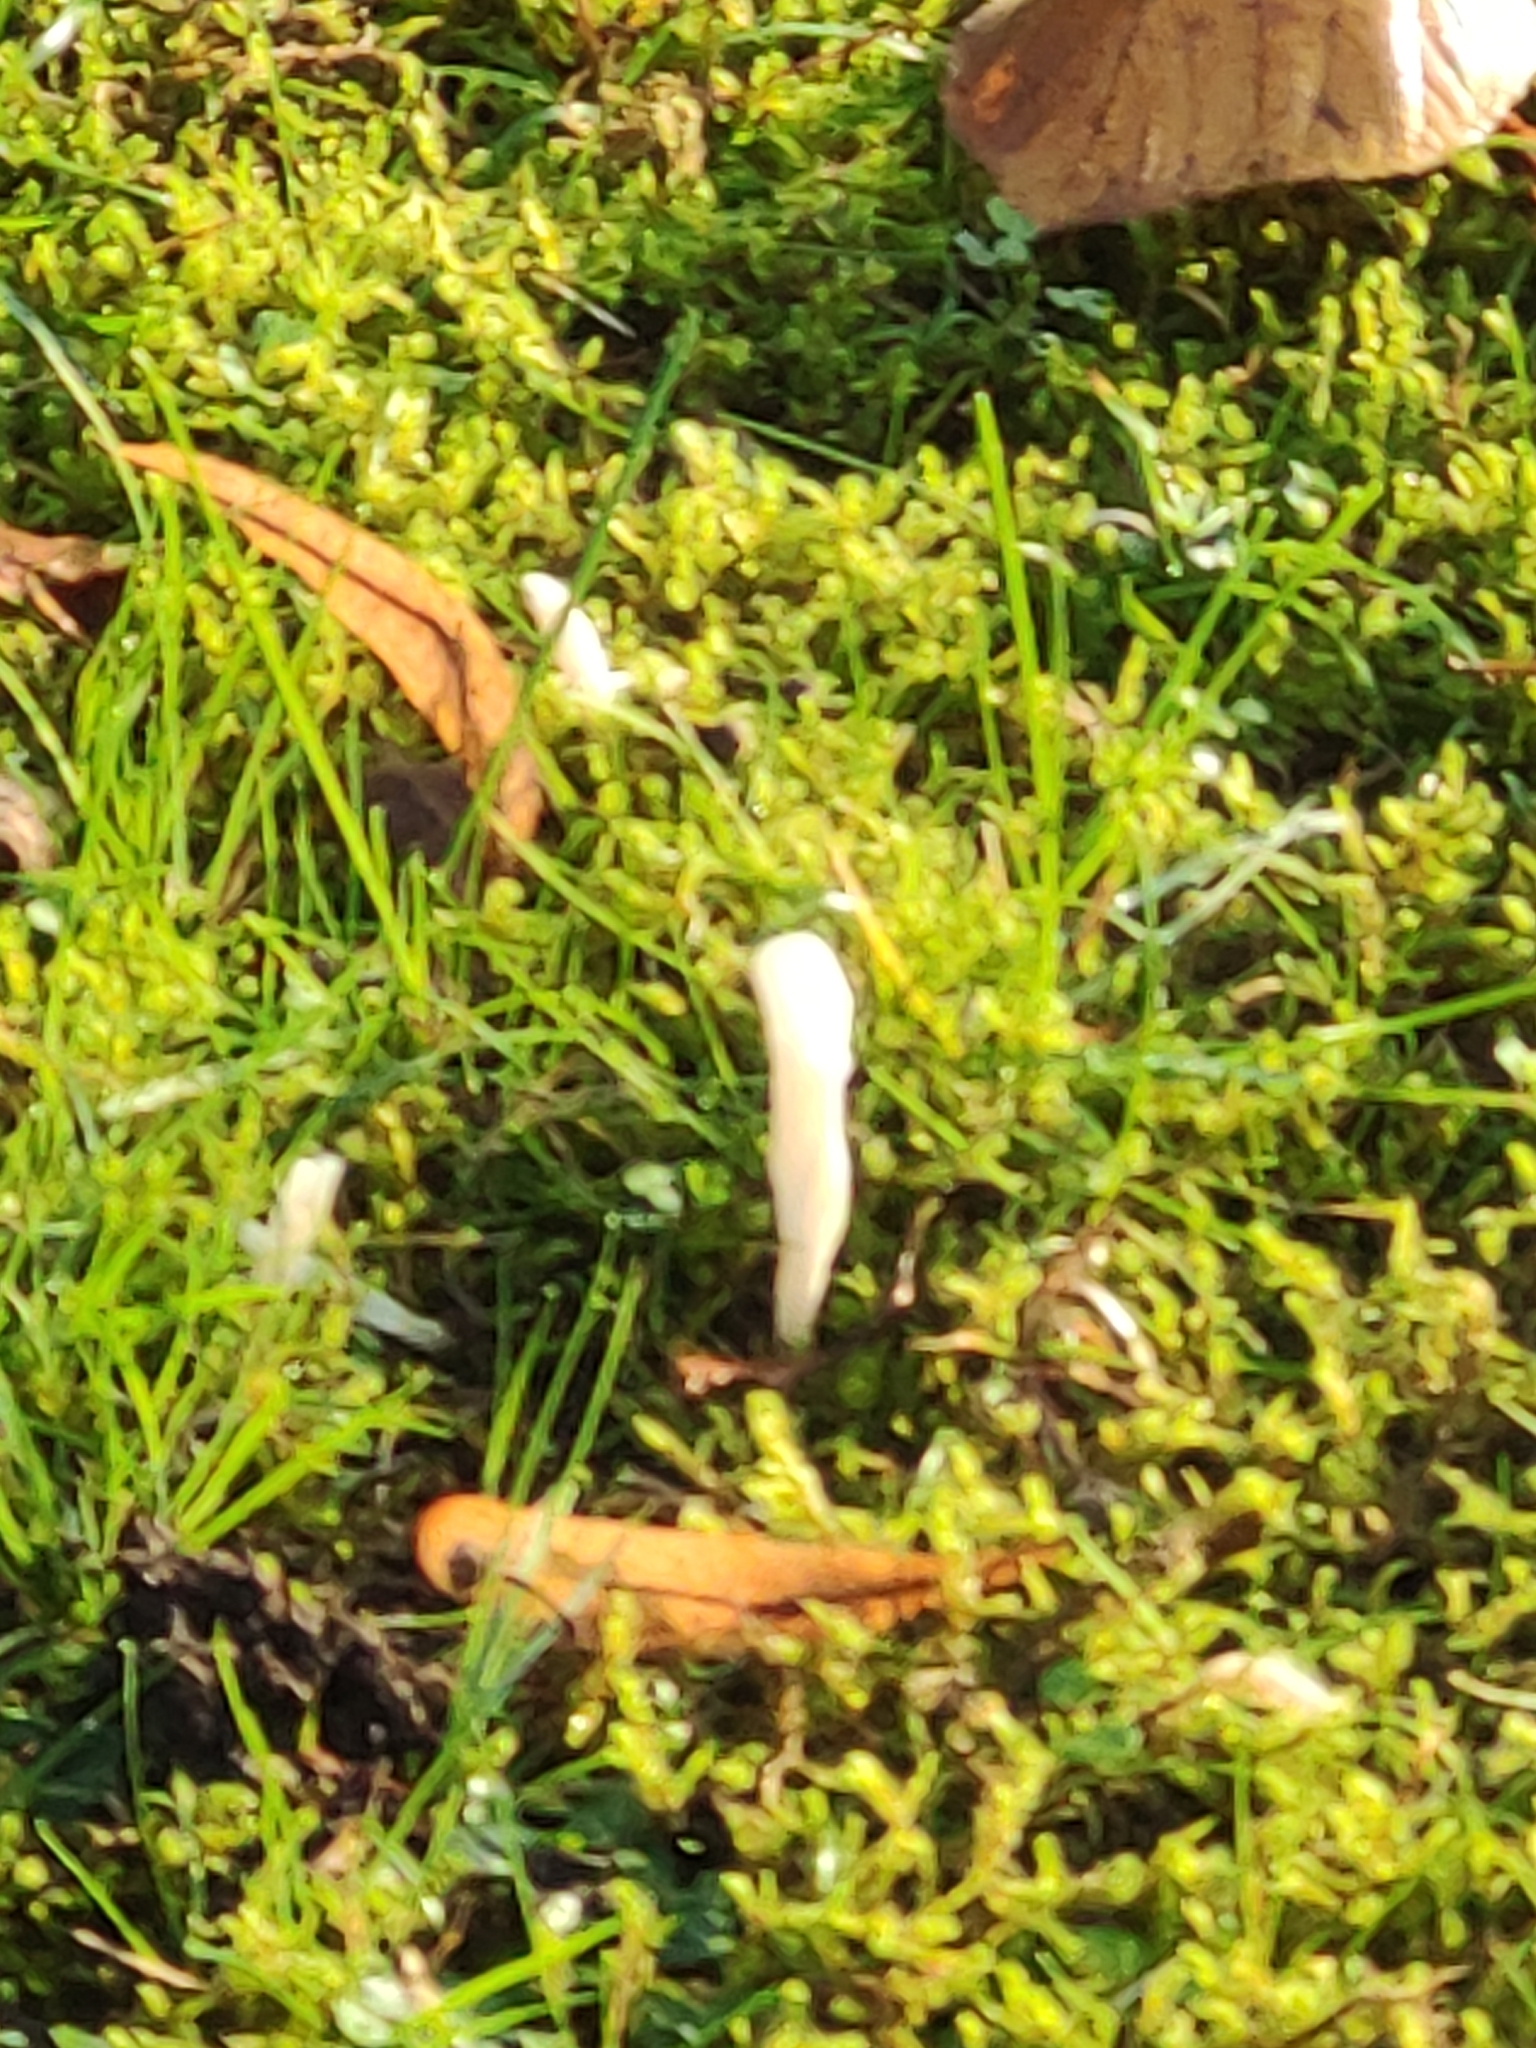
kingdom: Fungi
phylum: Basidiomycota
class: Agaricomycetes
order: Cantharellales
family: Hydnaceae
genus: Clavulina
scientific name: Clavulina rugosa
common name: Wrinkled club
